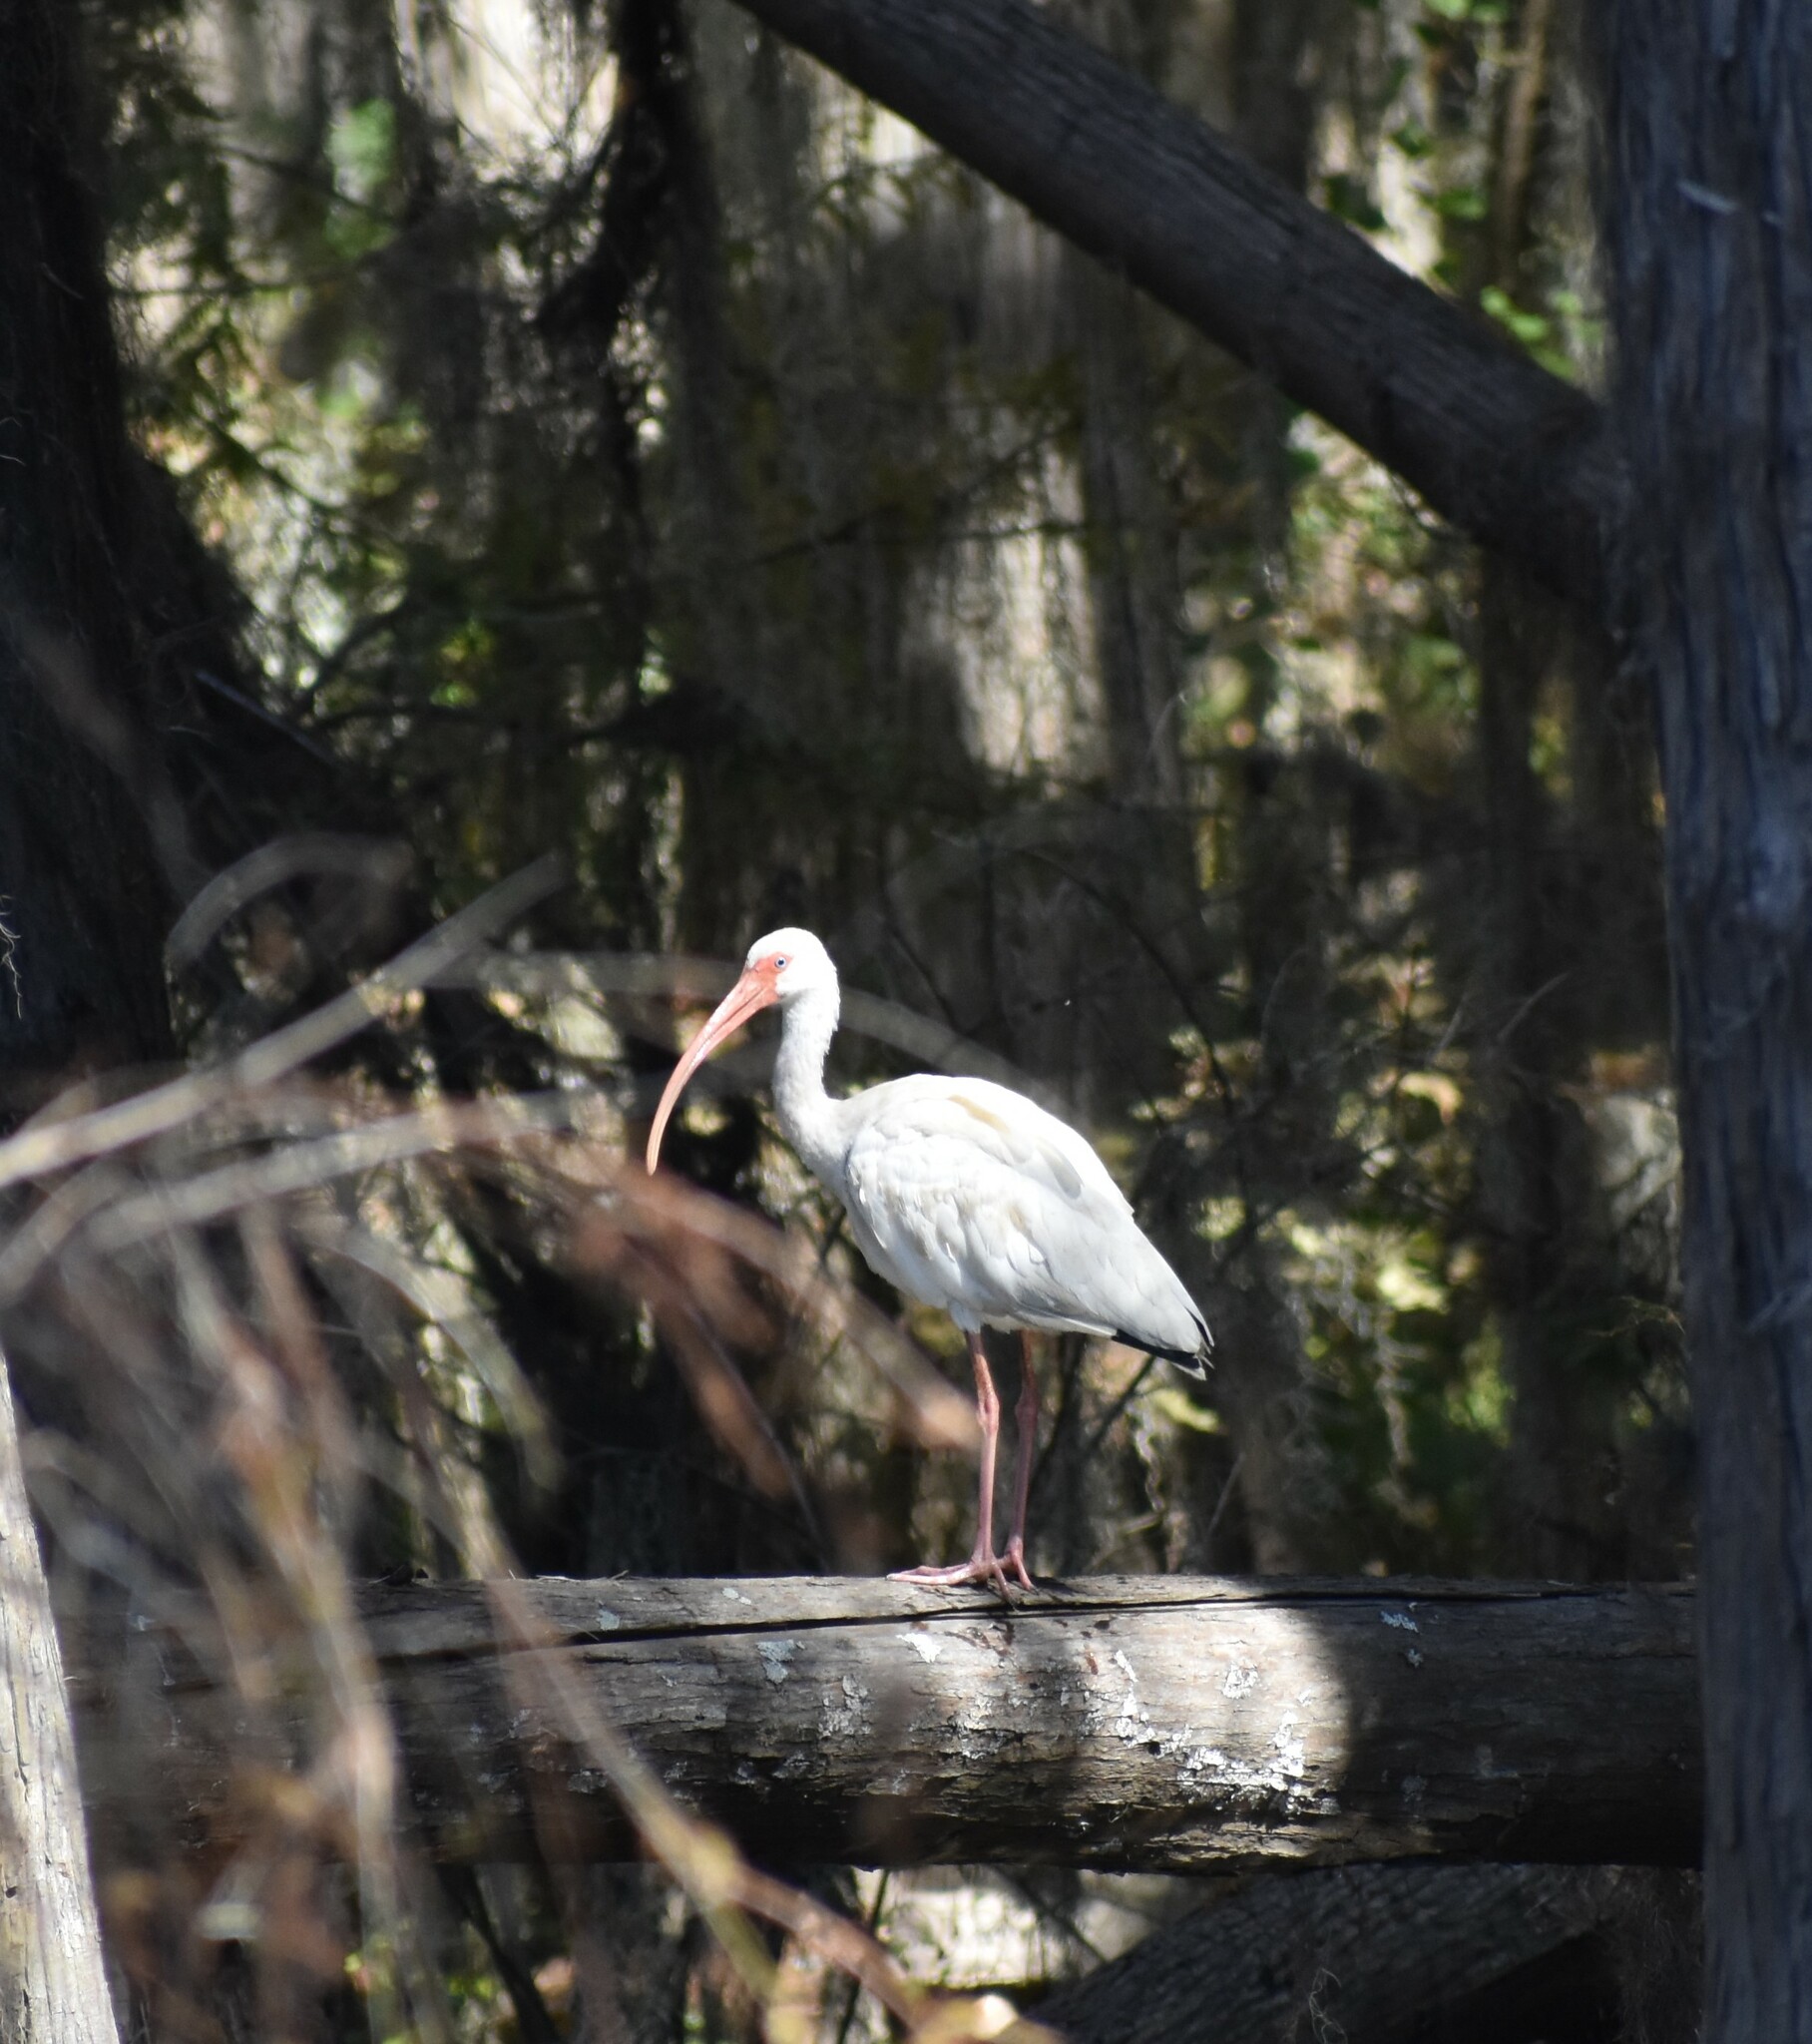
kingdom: Animalia
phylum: Chordata
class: Aves
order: Pelecaniformes
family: Threskiornithidae
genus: Eudocimus
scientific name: Eudocimus albus
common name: White ibis
